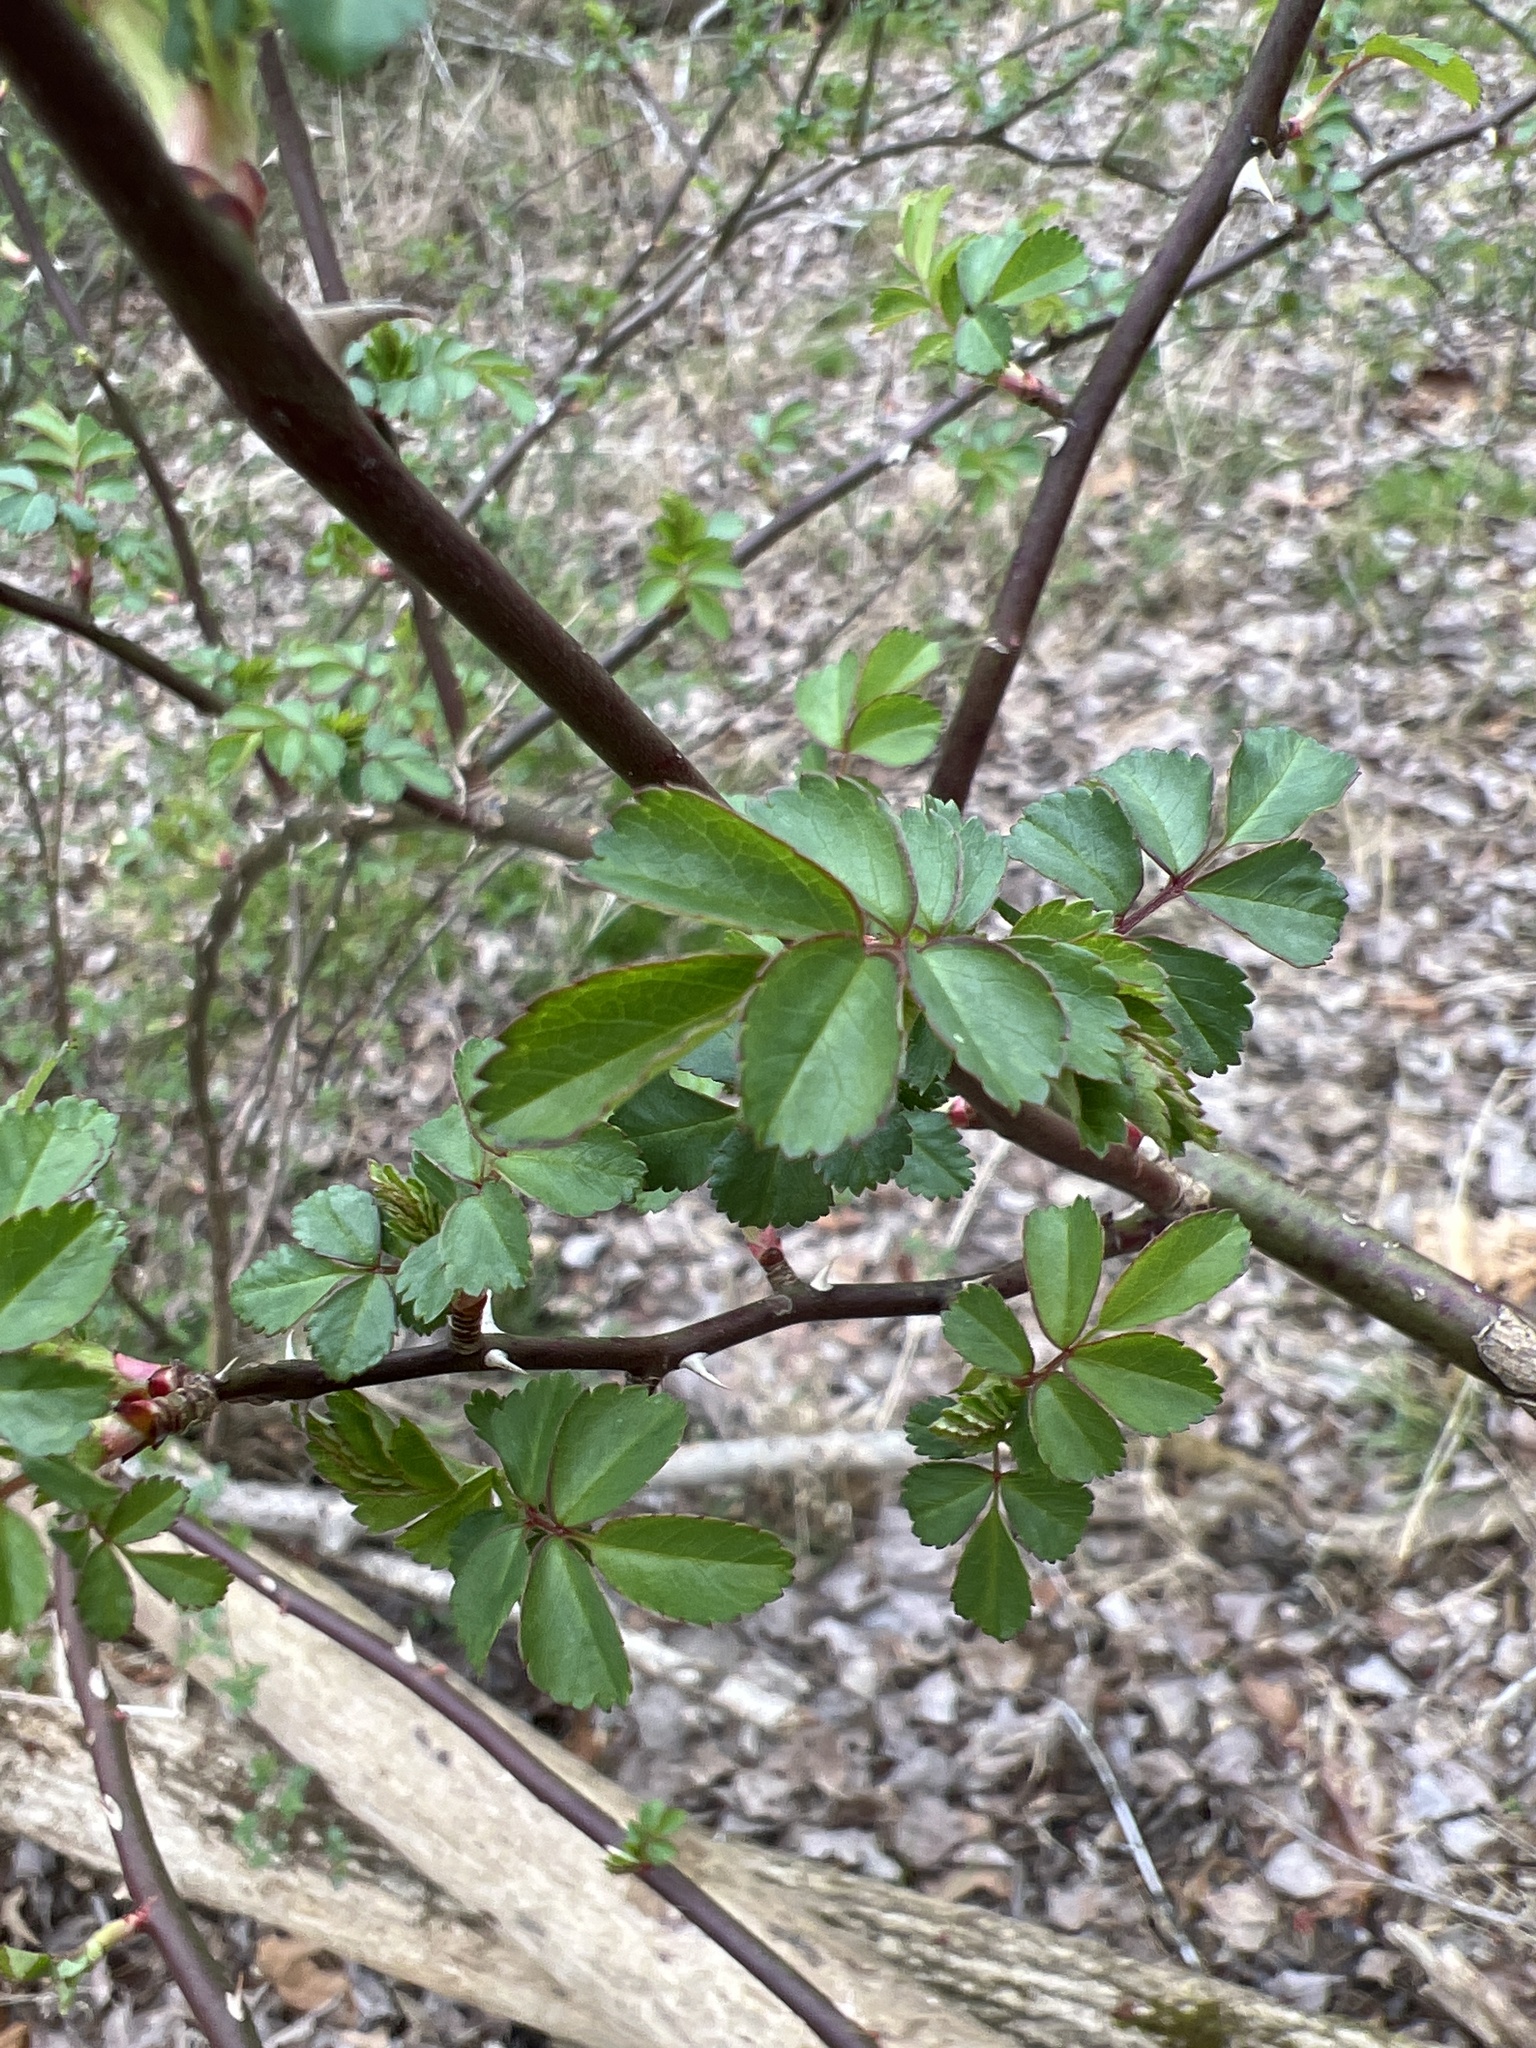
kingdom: Plantae
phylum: Tracheophyta
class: Magnoliopsida
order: Rosales
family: Rosaceae
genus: Rosa
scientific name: Rosa multiflora
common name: Multiflora rose
